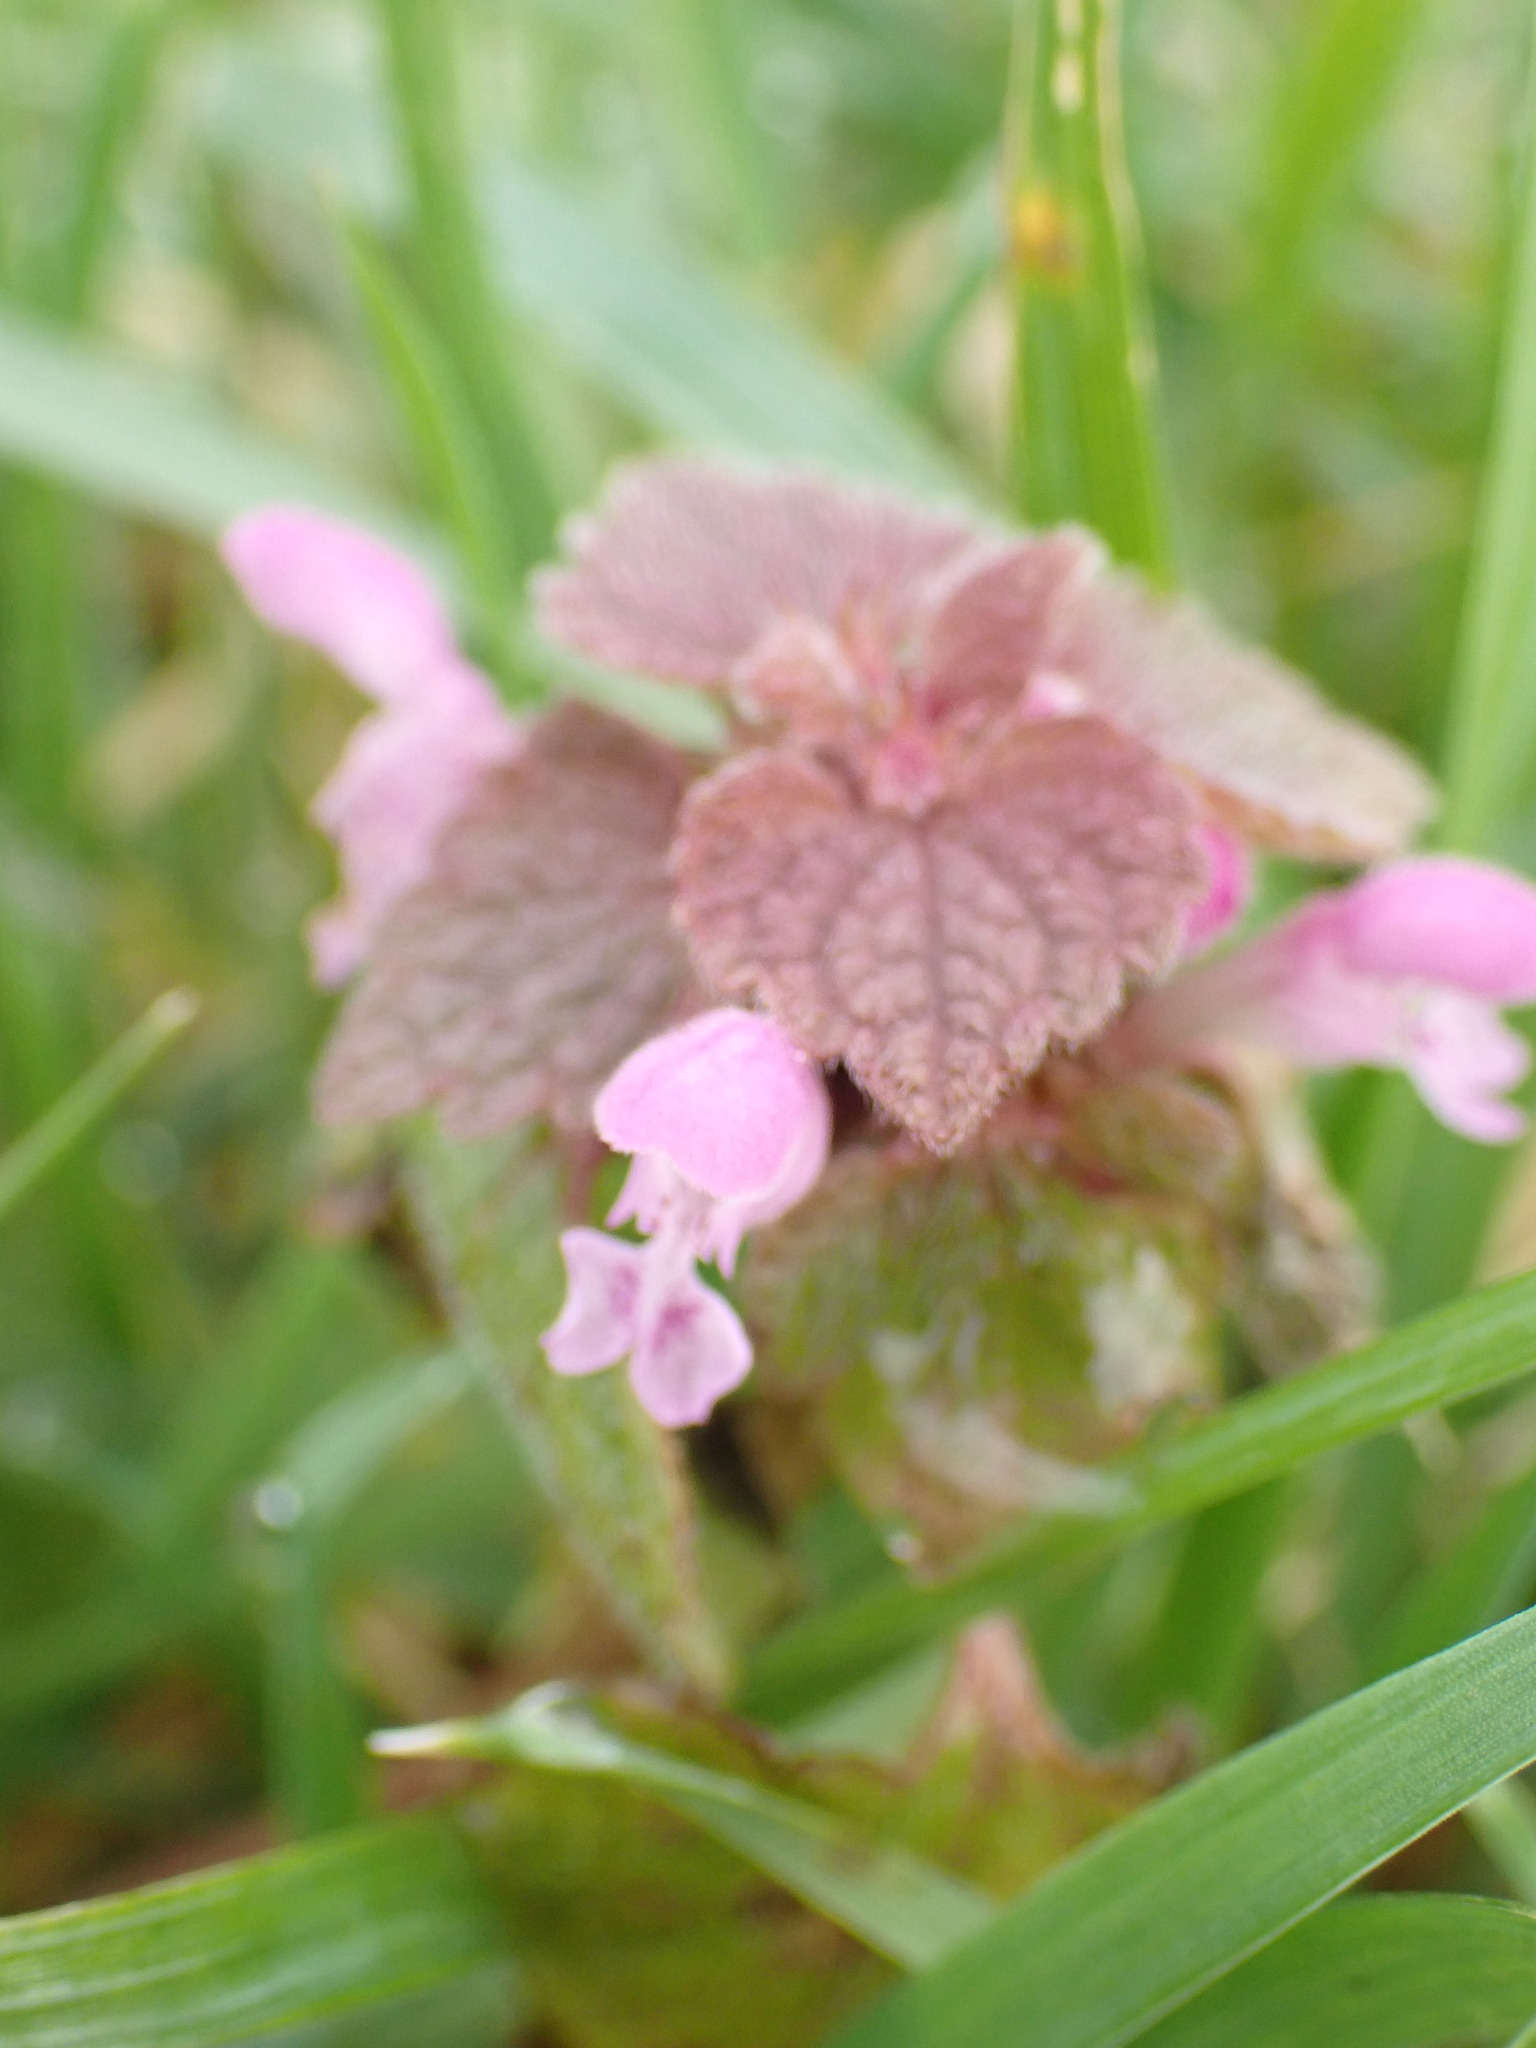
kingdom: Plantae
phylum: Tracheophyta
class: Magnoliopsida
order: Lamiales
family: Lamiaceae
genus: Lamium
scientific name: Lamium purpureum
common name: Red dead-nettle
